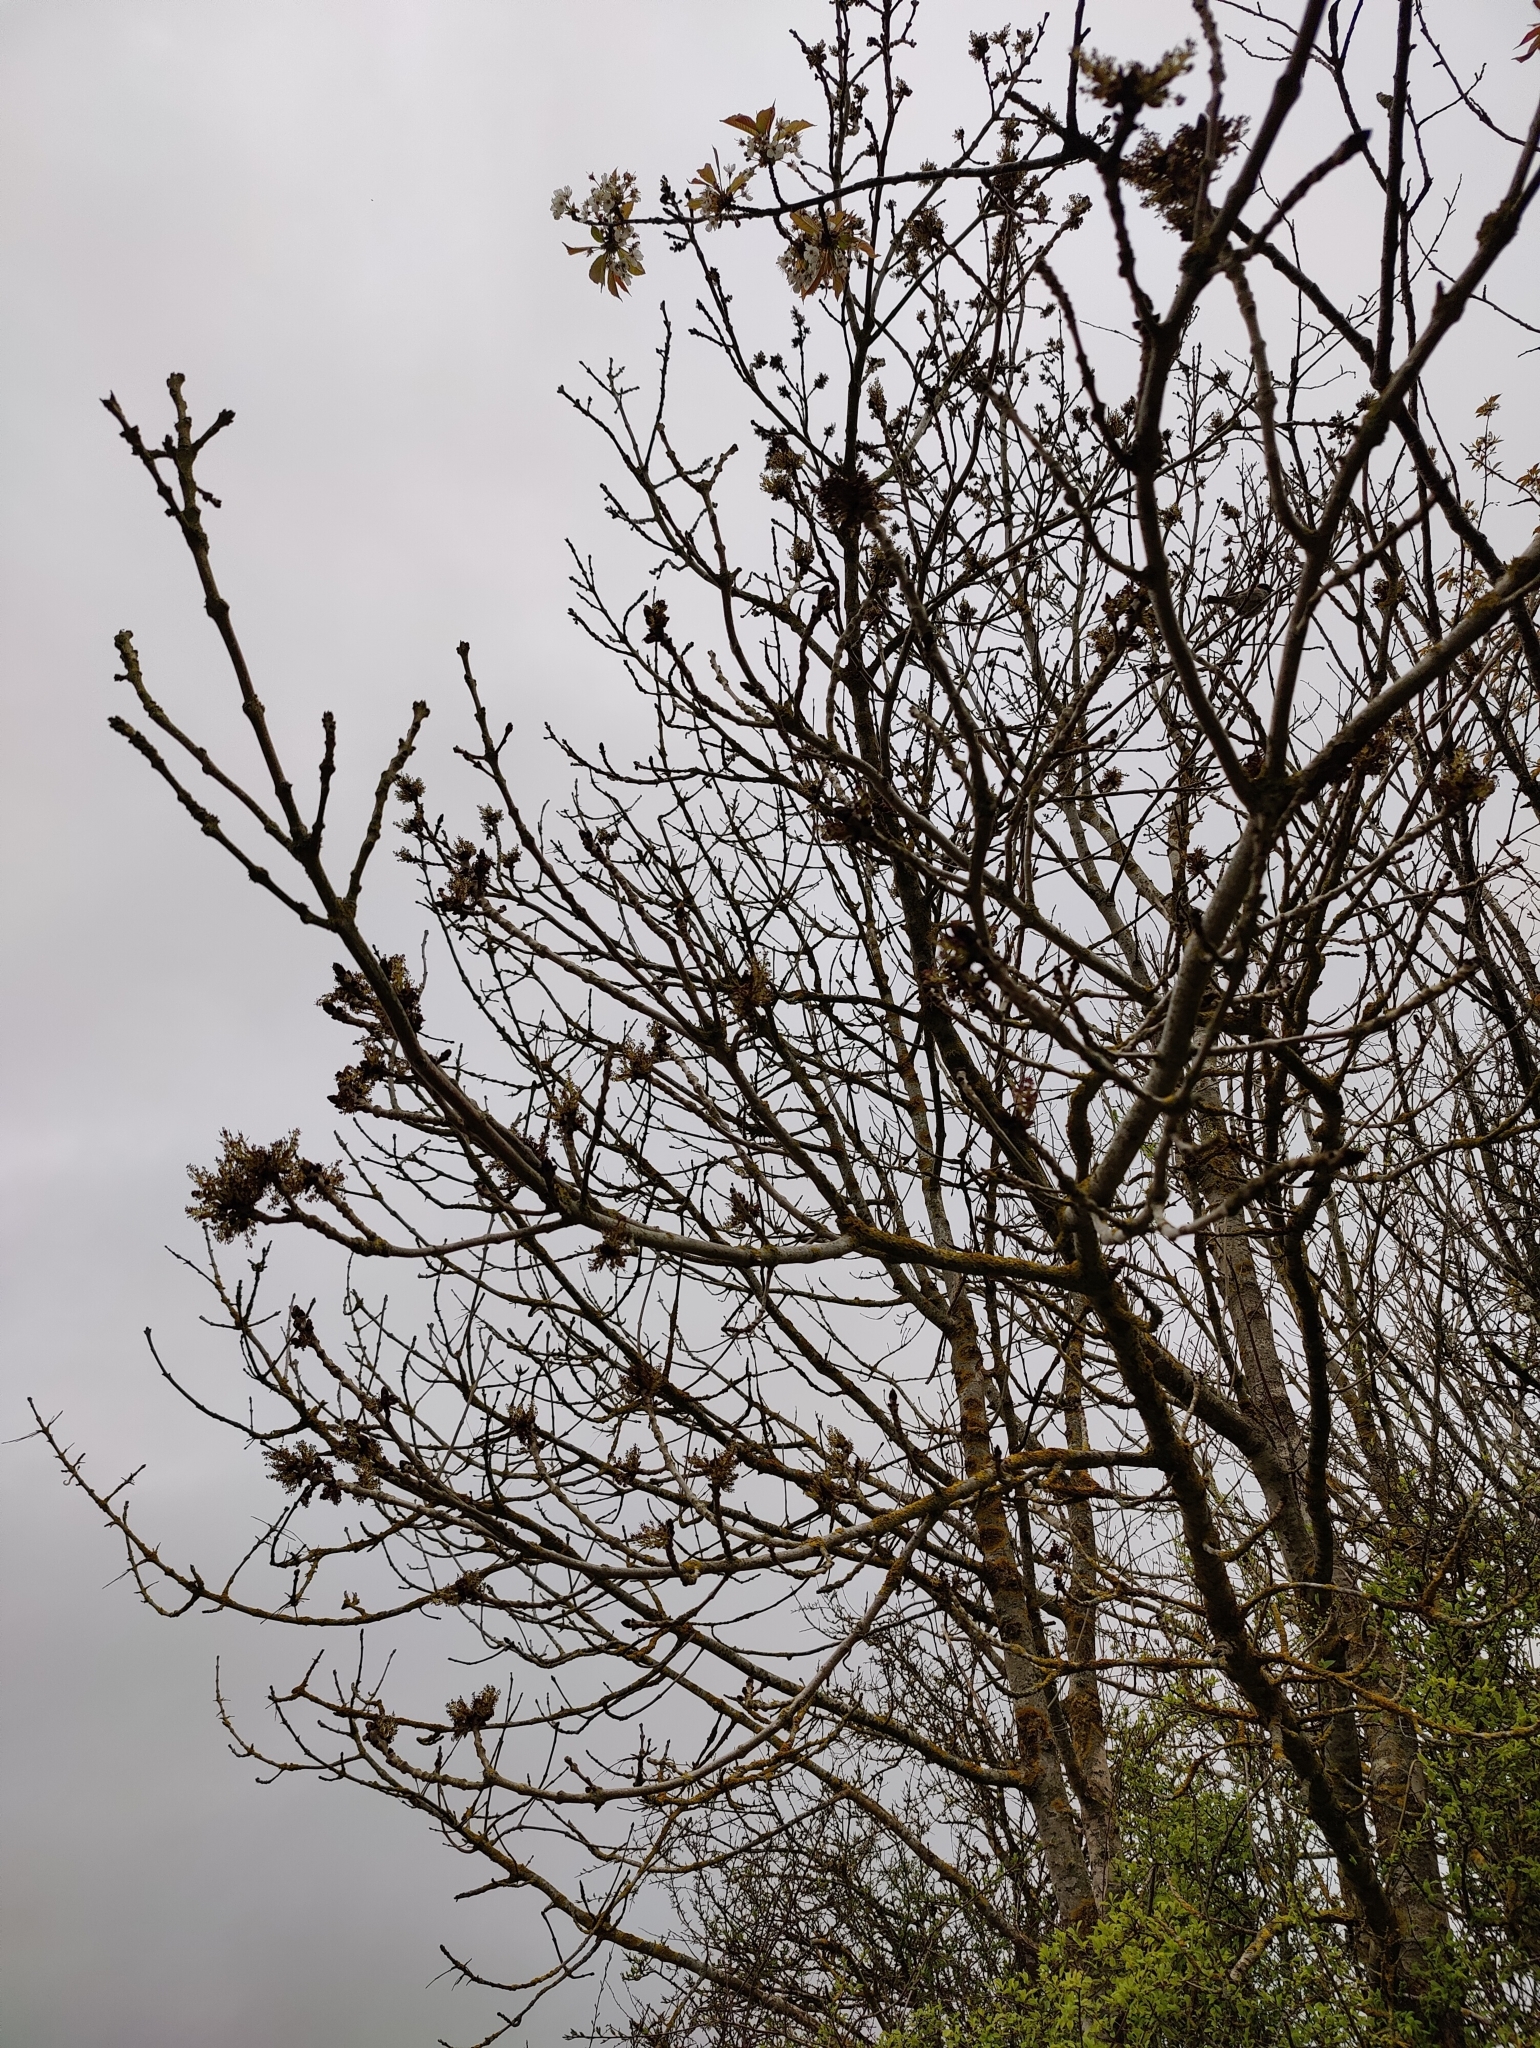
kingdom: Plantae
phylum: Tracheophyta
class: Magnoliopsida
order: Lamiales
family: Oleaceae
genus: Fraxinus
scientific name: Fraxinus excelsior
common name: European ash
